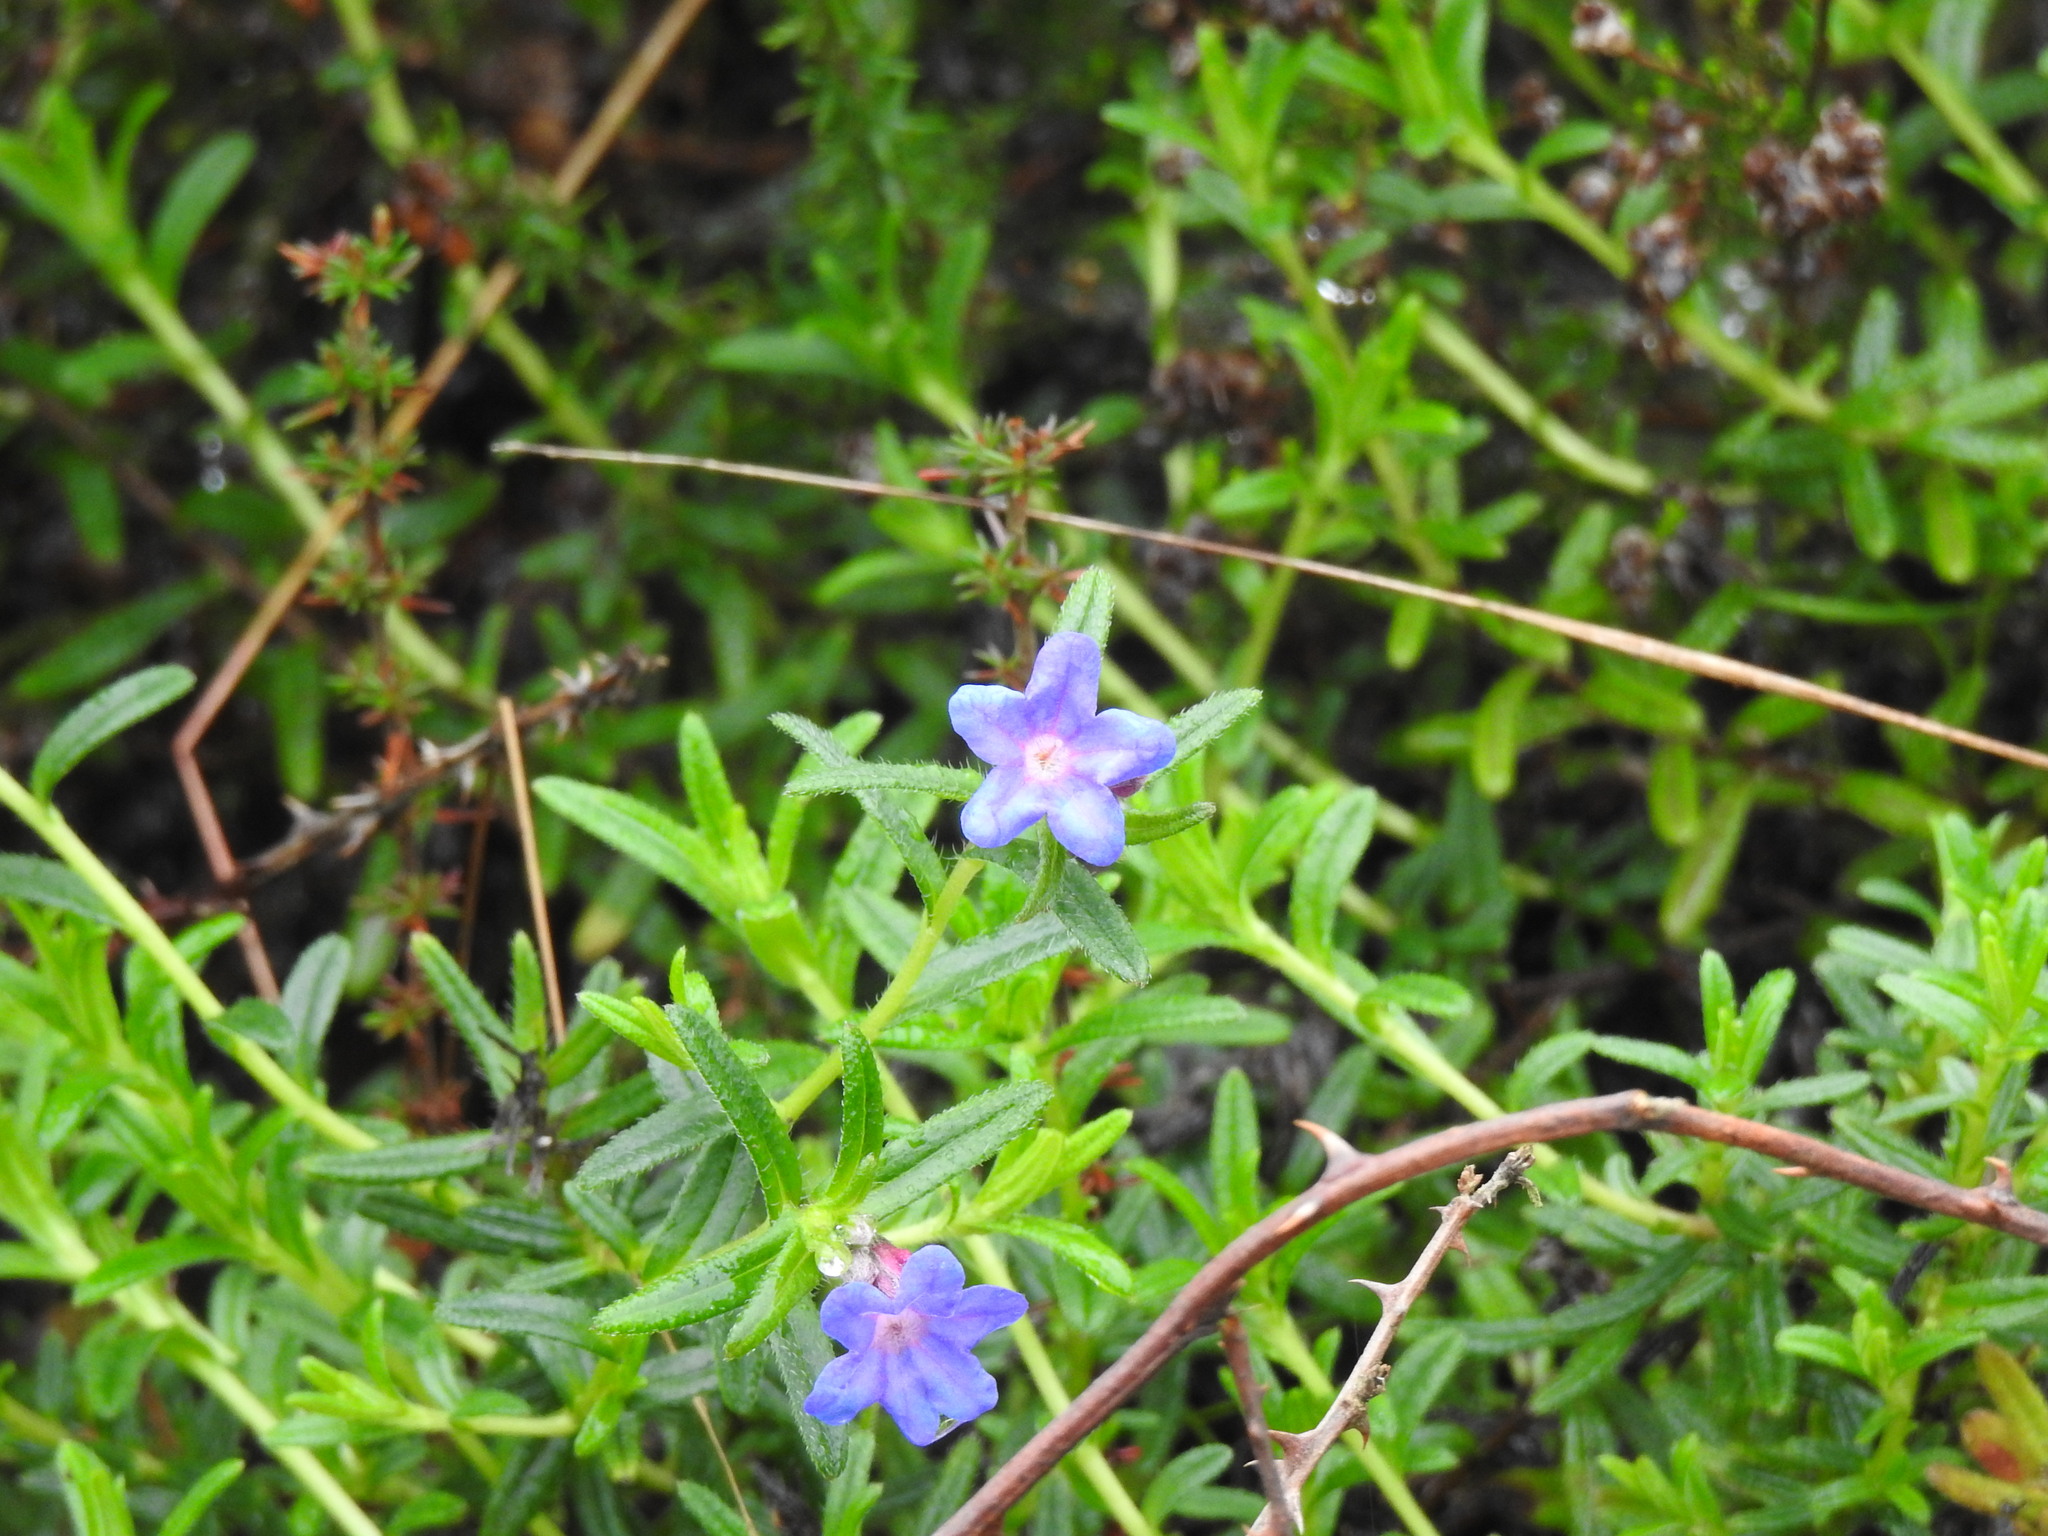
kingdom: Plantae
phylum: Tracheophyta
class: Magnoliopsida
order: Boraginales
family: Boraginaceae
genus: Glandora
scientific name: Glandora prostrata
